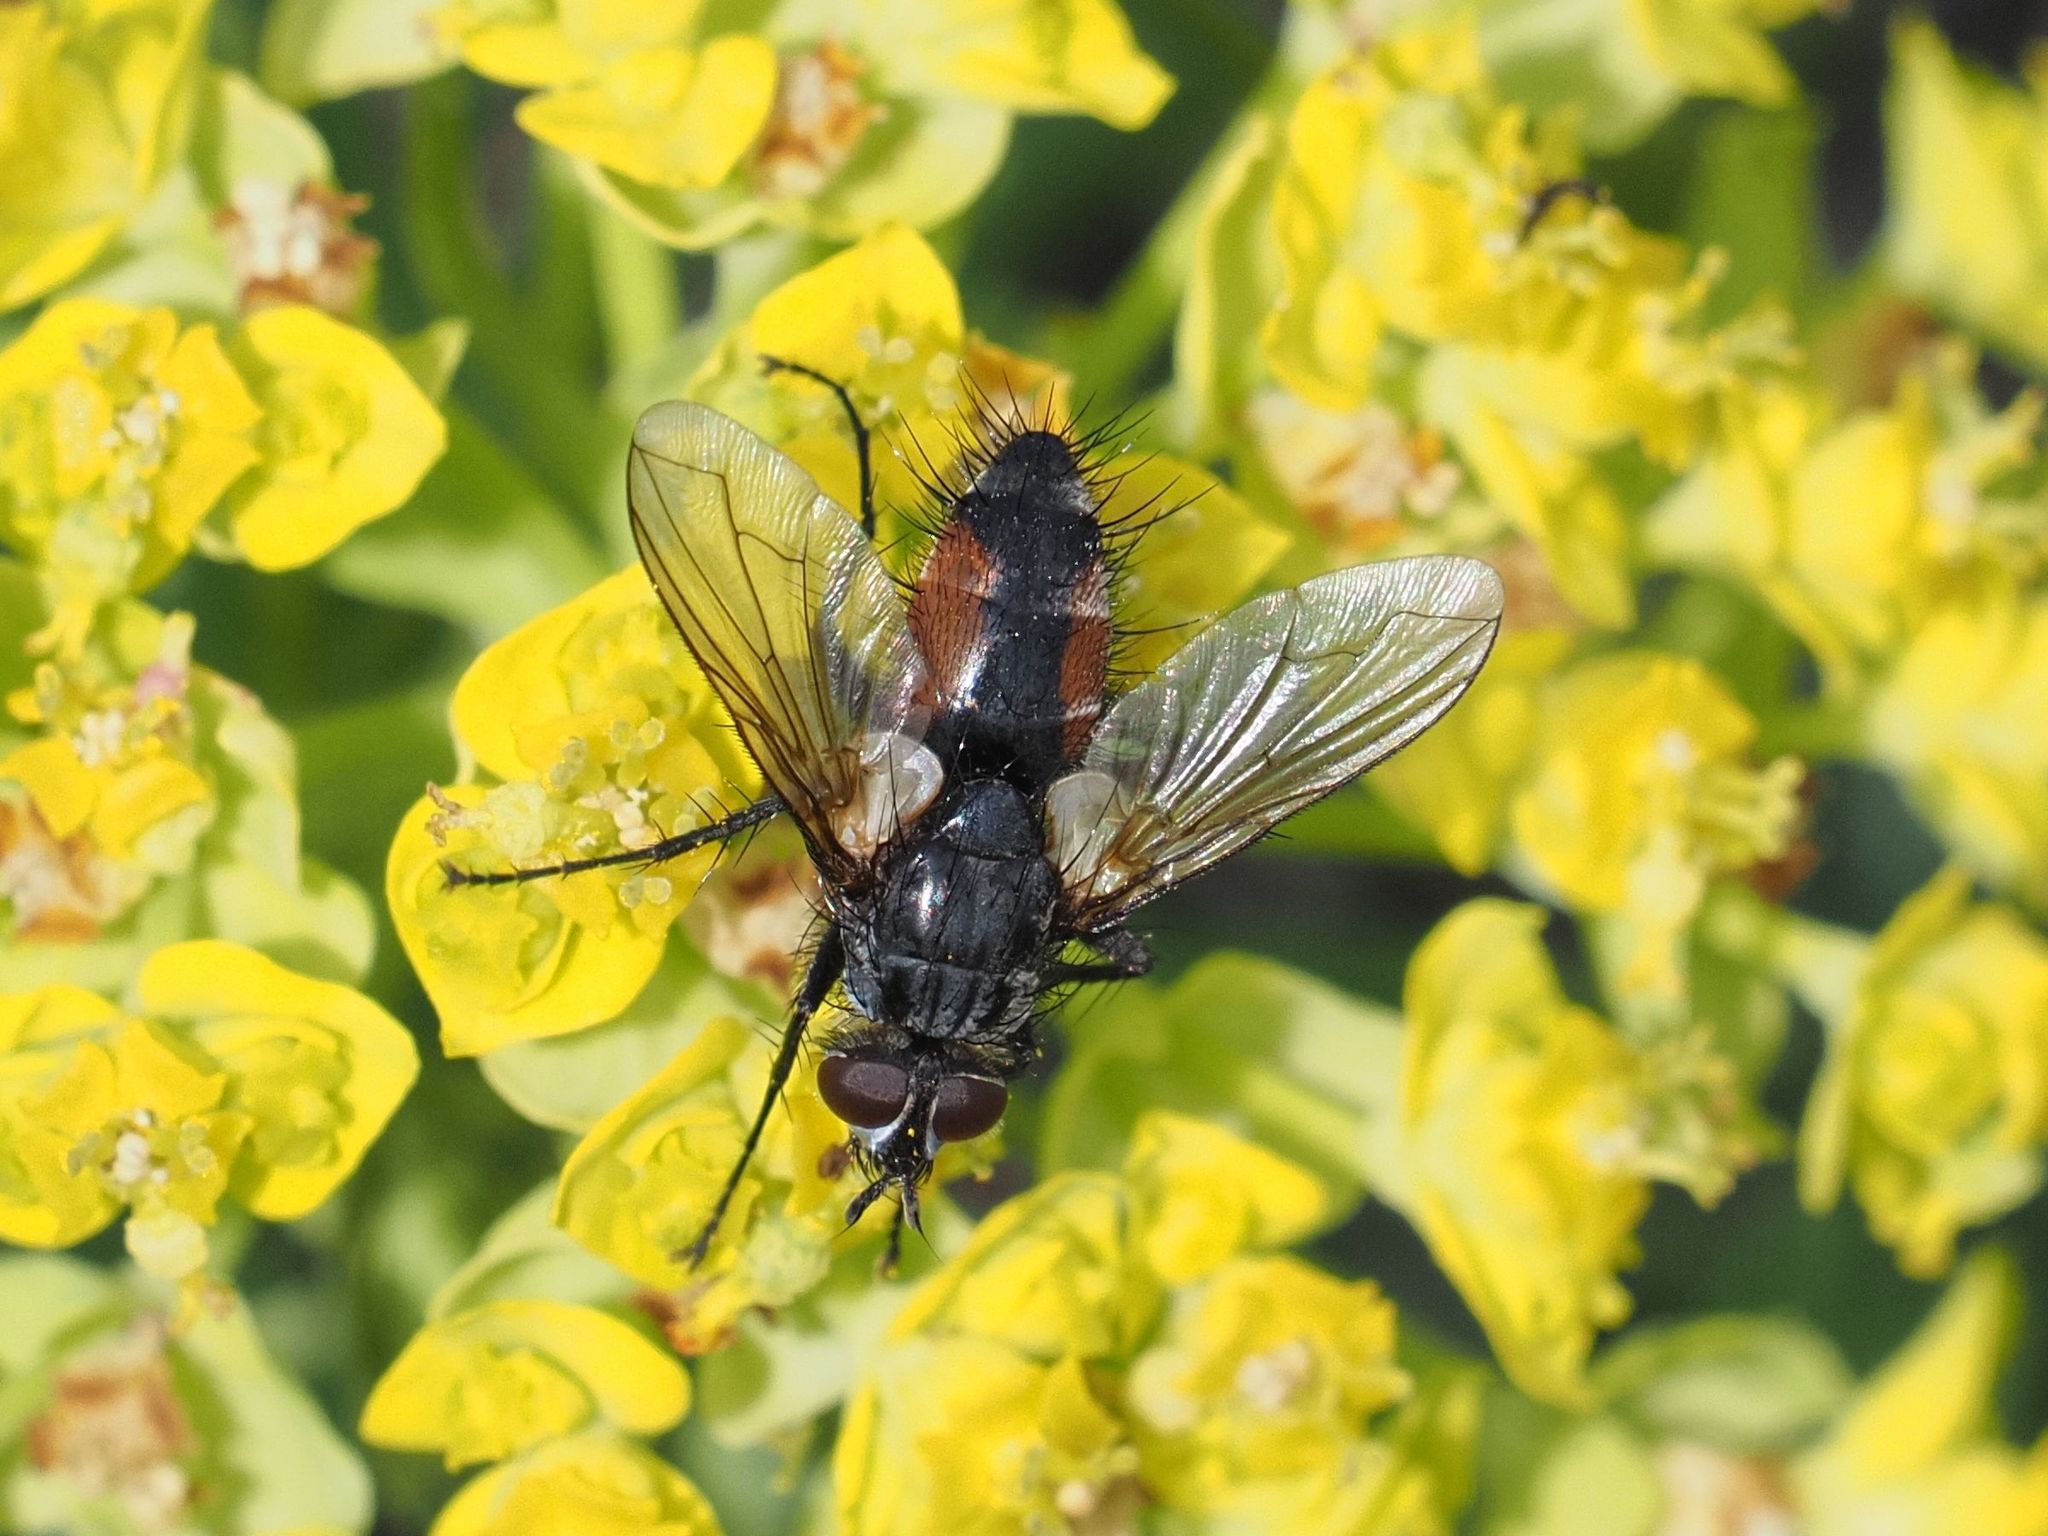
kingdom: Animalia
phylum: Arthropoda
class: Insecta
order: Diptera
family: Tachinidae
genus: Eriothrix
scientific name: Eriothrix rufomaculatus
